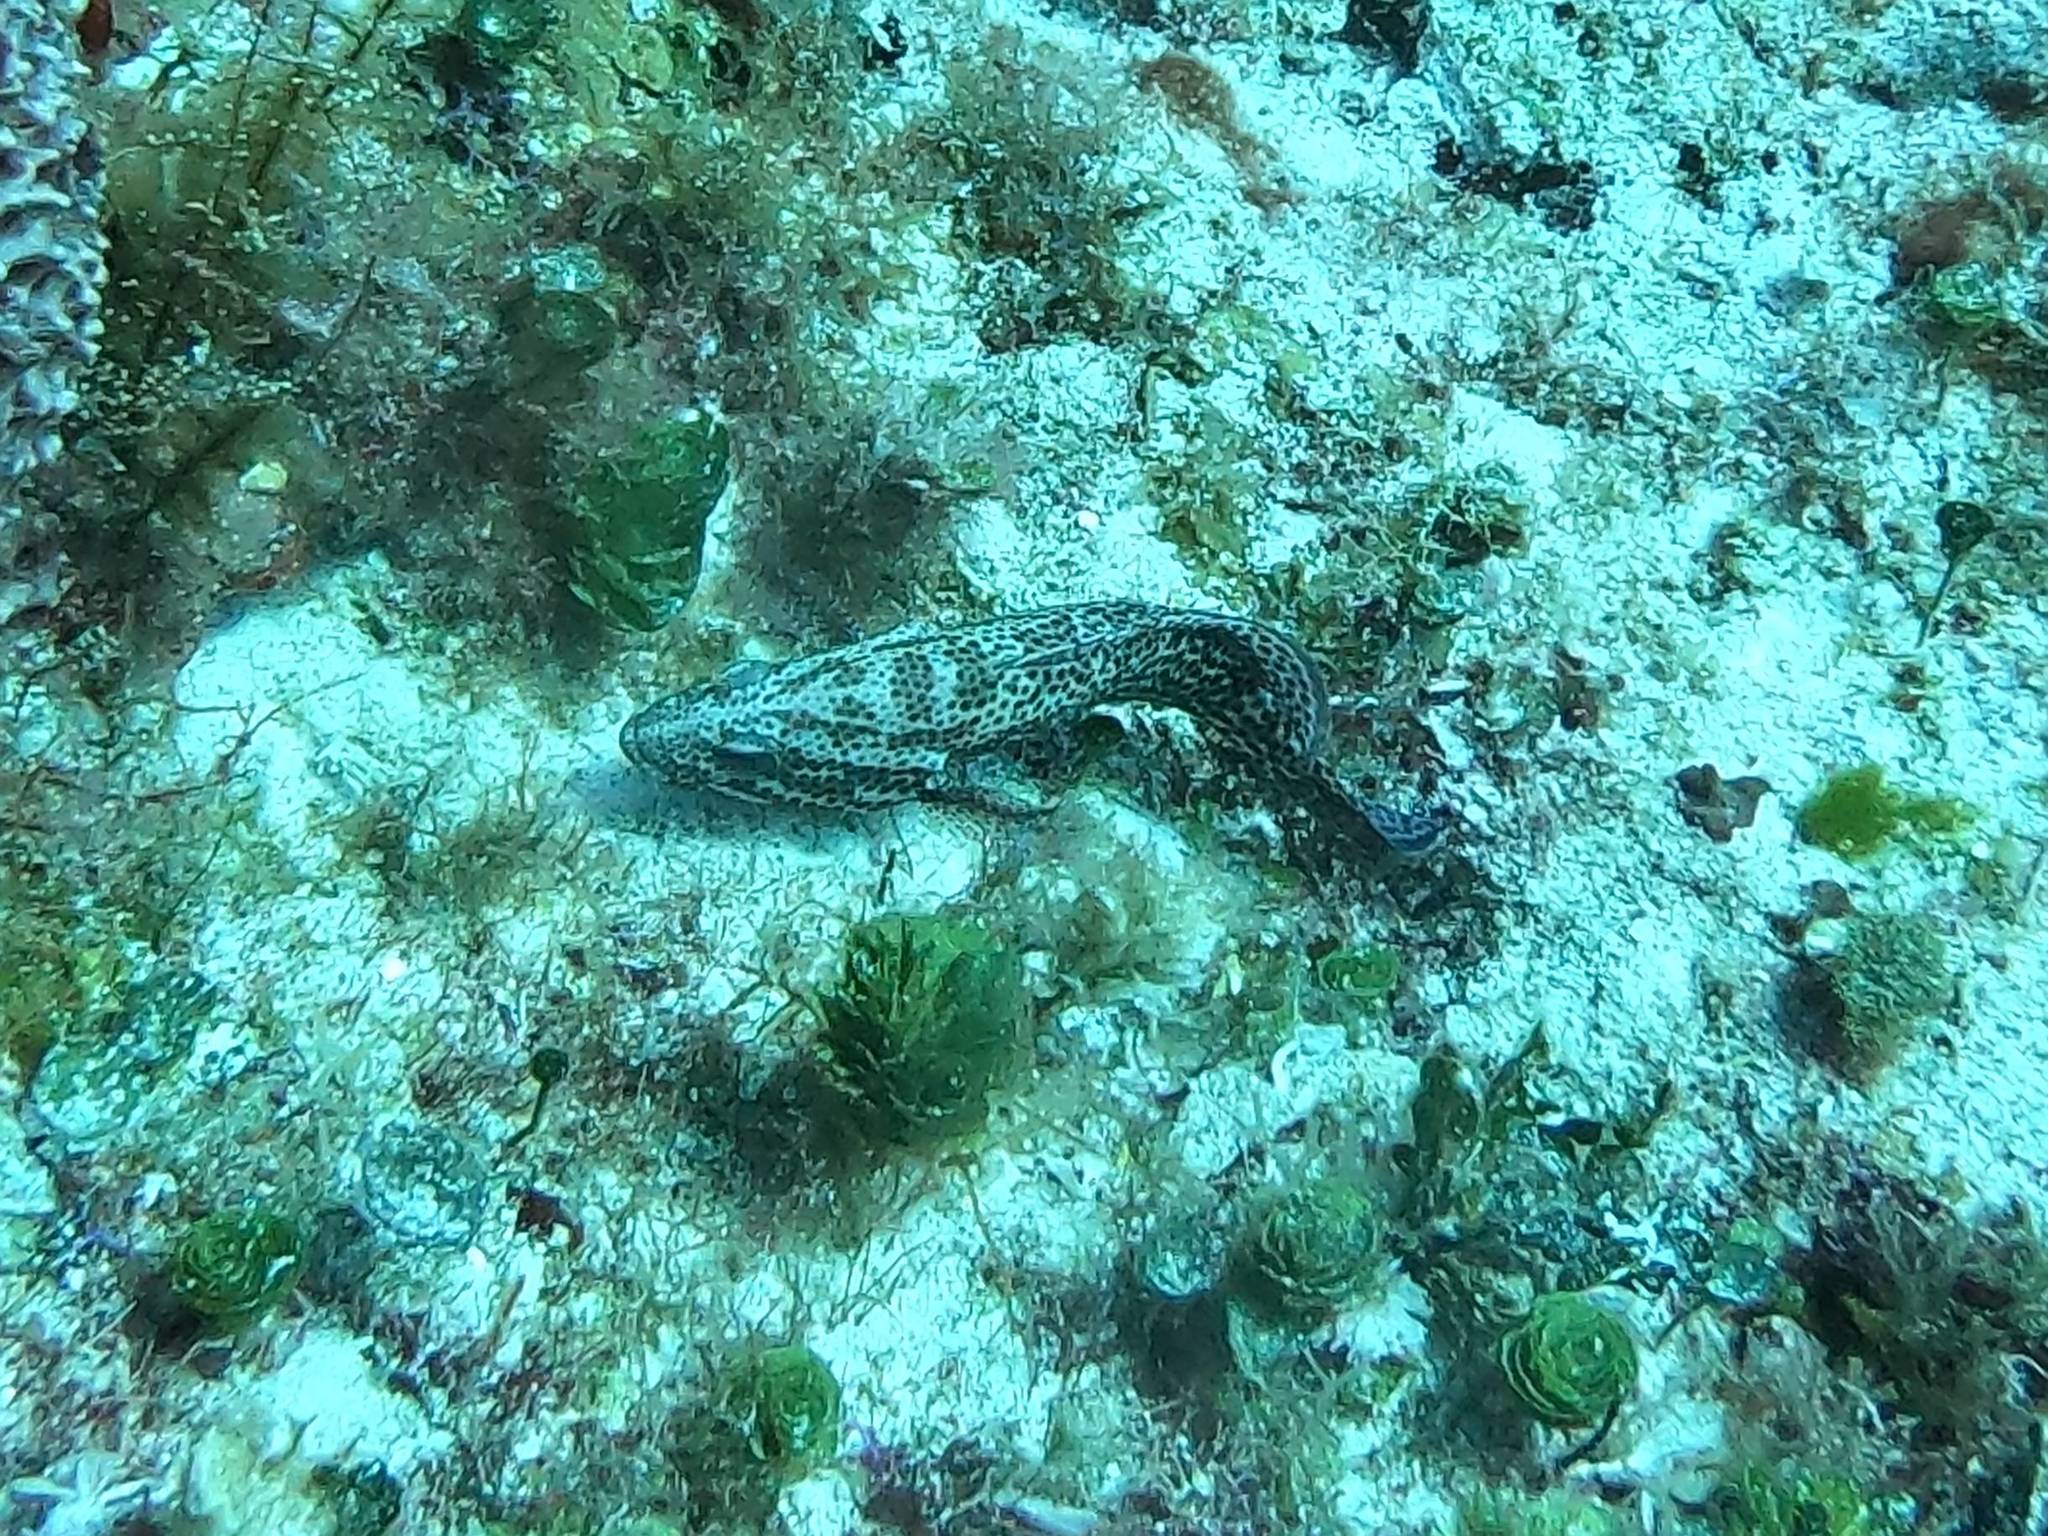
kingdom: Animalia
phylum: Chordata
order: Perciformes
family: Serranidae
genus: Cephalopholis
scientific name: Cephalopholis cruentata
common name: Graysby
